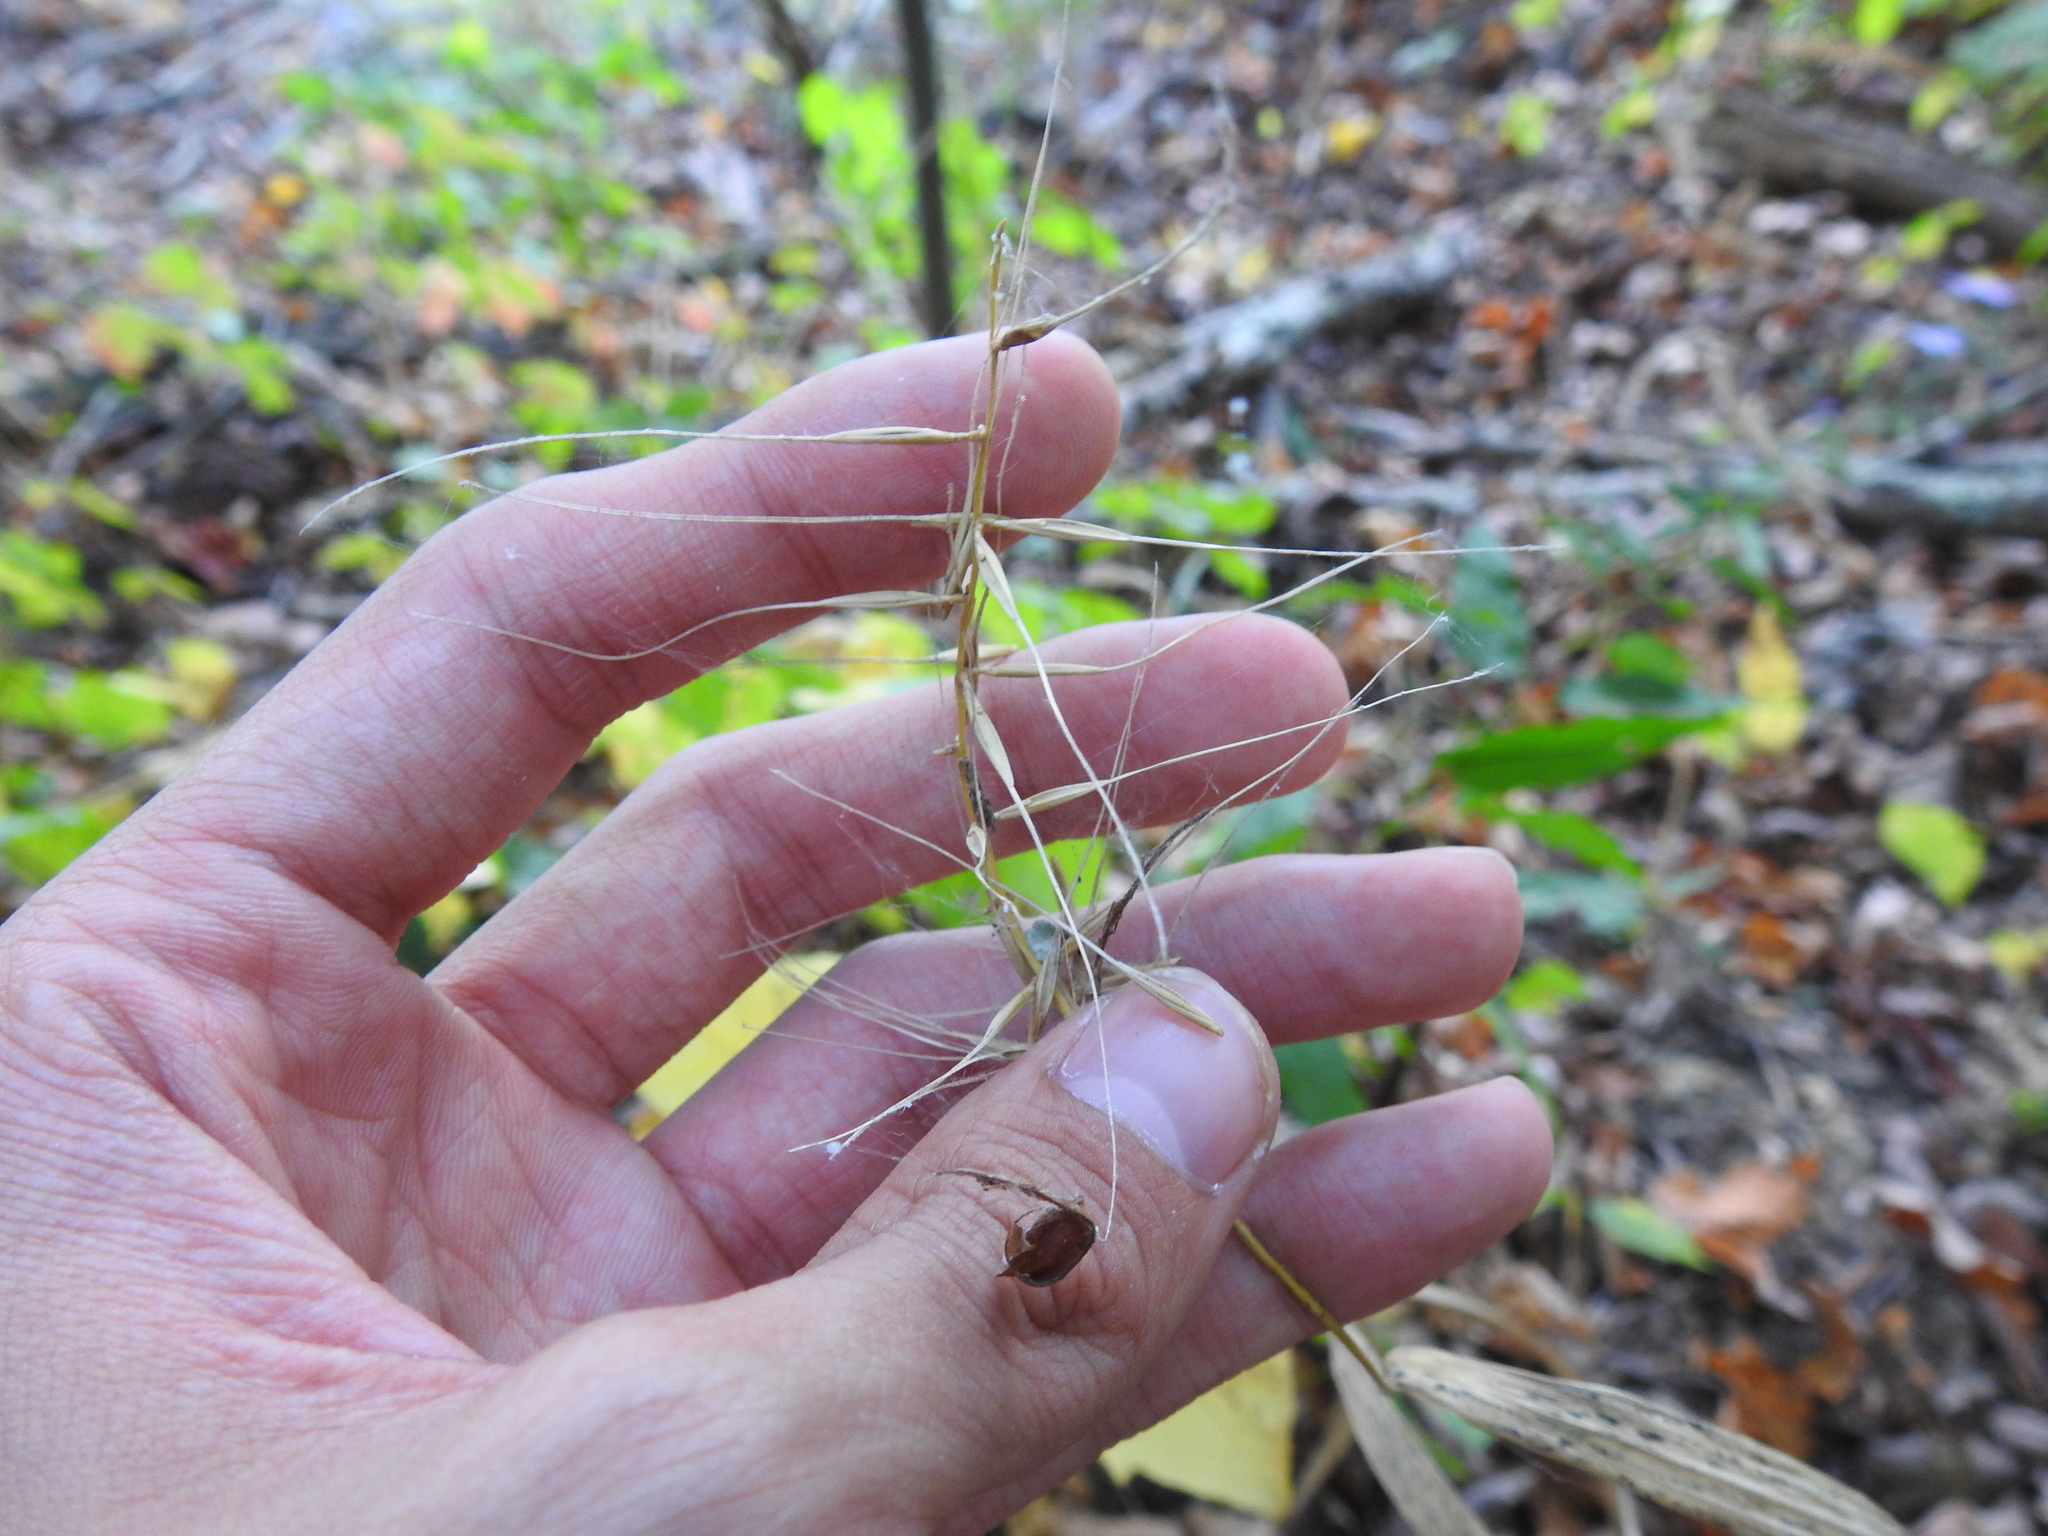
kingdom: Plantae
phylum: Tracheophyta
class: Liliopsida
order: Poales
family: Poaceae
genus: Elymus
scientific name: Elymus hystrix
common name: Bottlebrush grass
